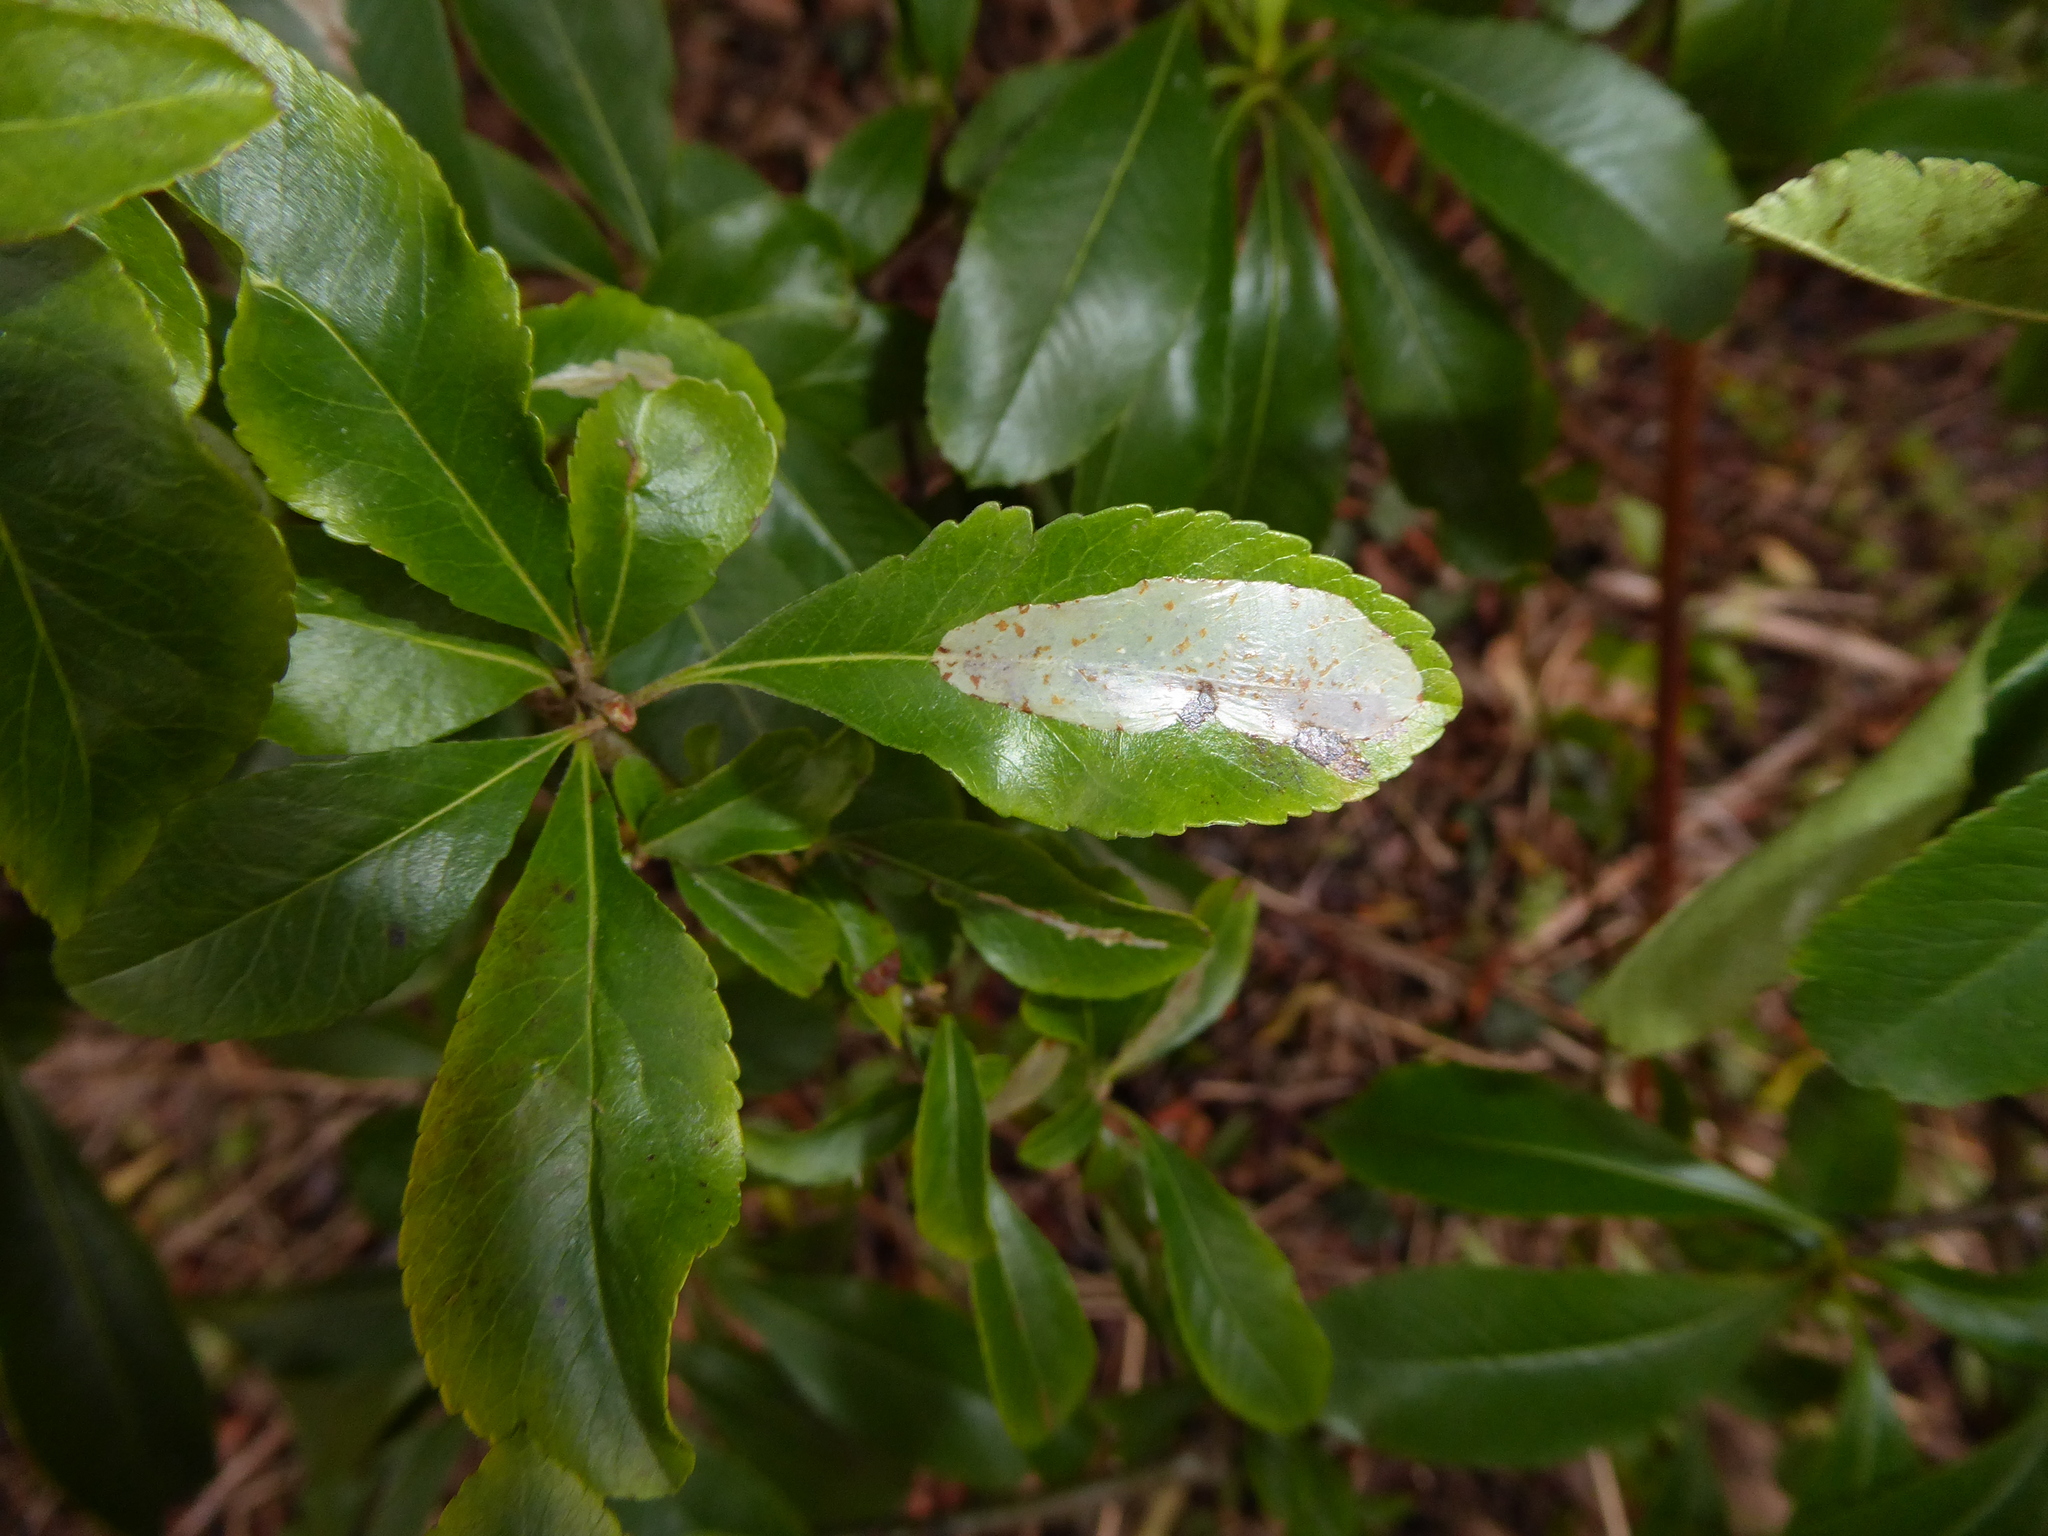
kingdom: Animalia
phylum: Arthropoda
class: Insecta
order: Lepidoptera
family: Gracillariidae
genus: Phyllonorycter
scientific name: Phyllonorycter leucographella
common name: Firethorn leaf-miner
